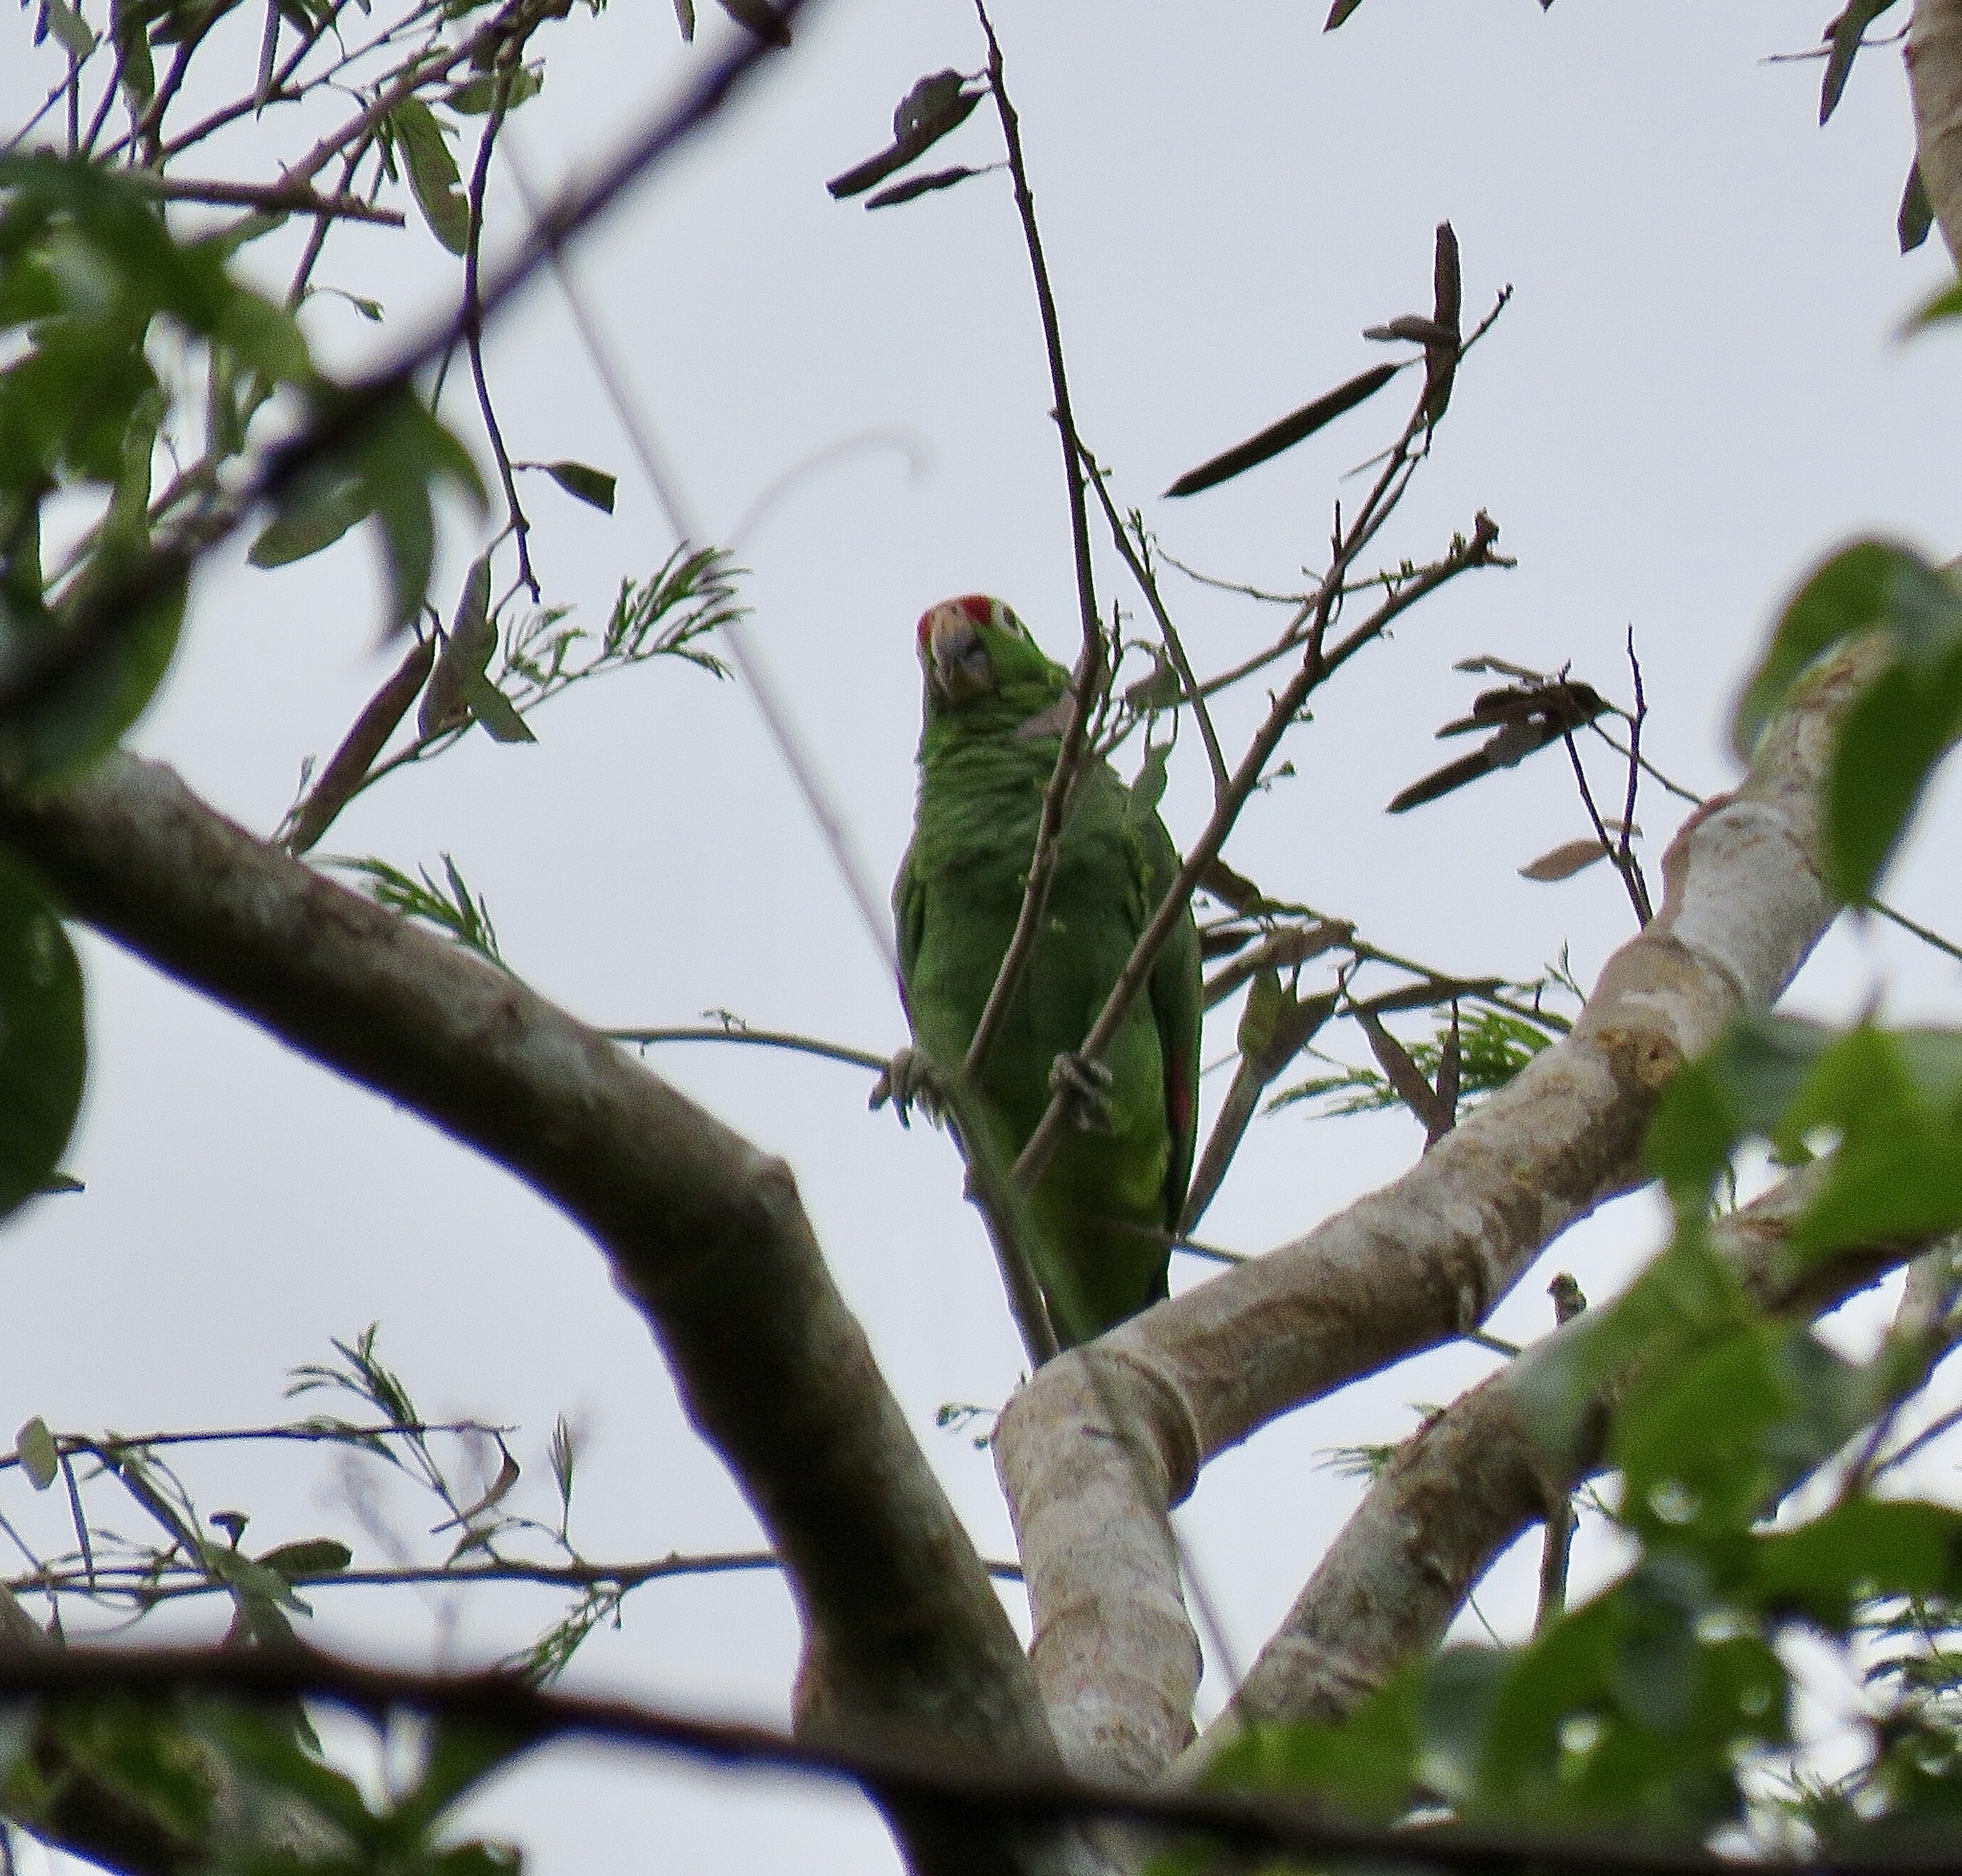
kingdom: Animalia
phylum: Chordata
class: Aves
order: Psittaciformes
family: Psittacidae
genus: Amazona
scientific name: Amazona autumnalis
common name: Red-lored amazon
